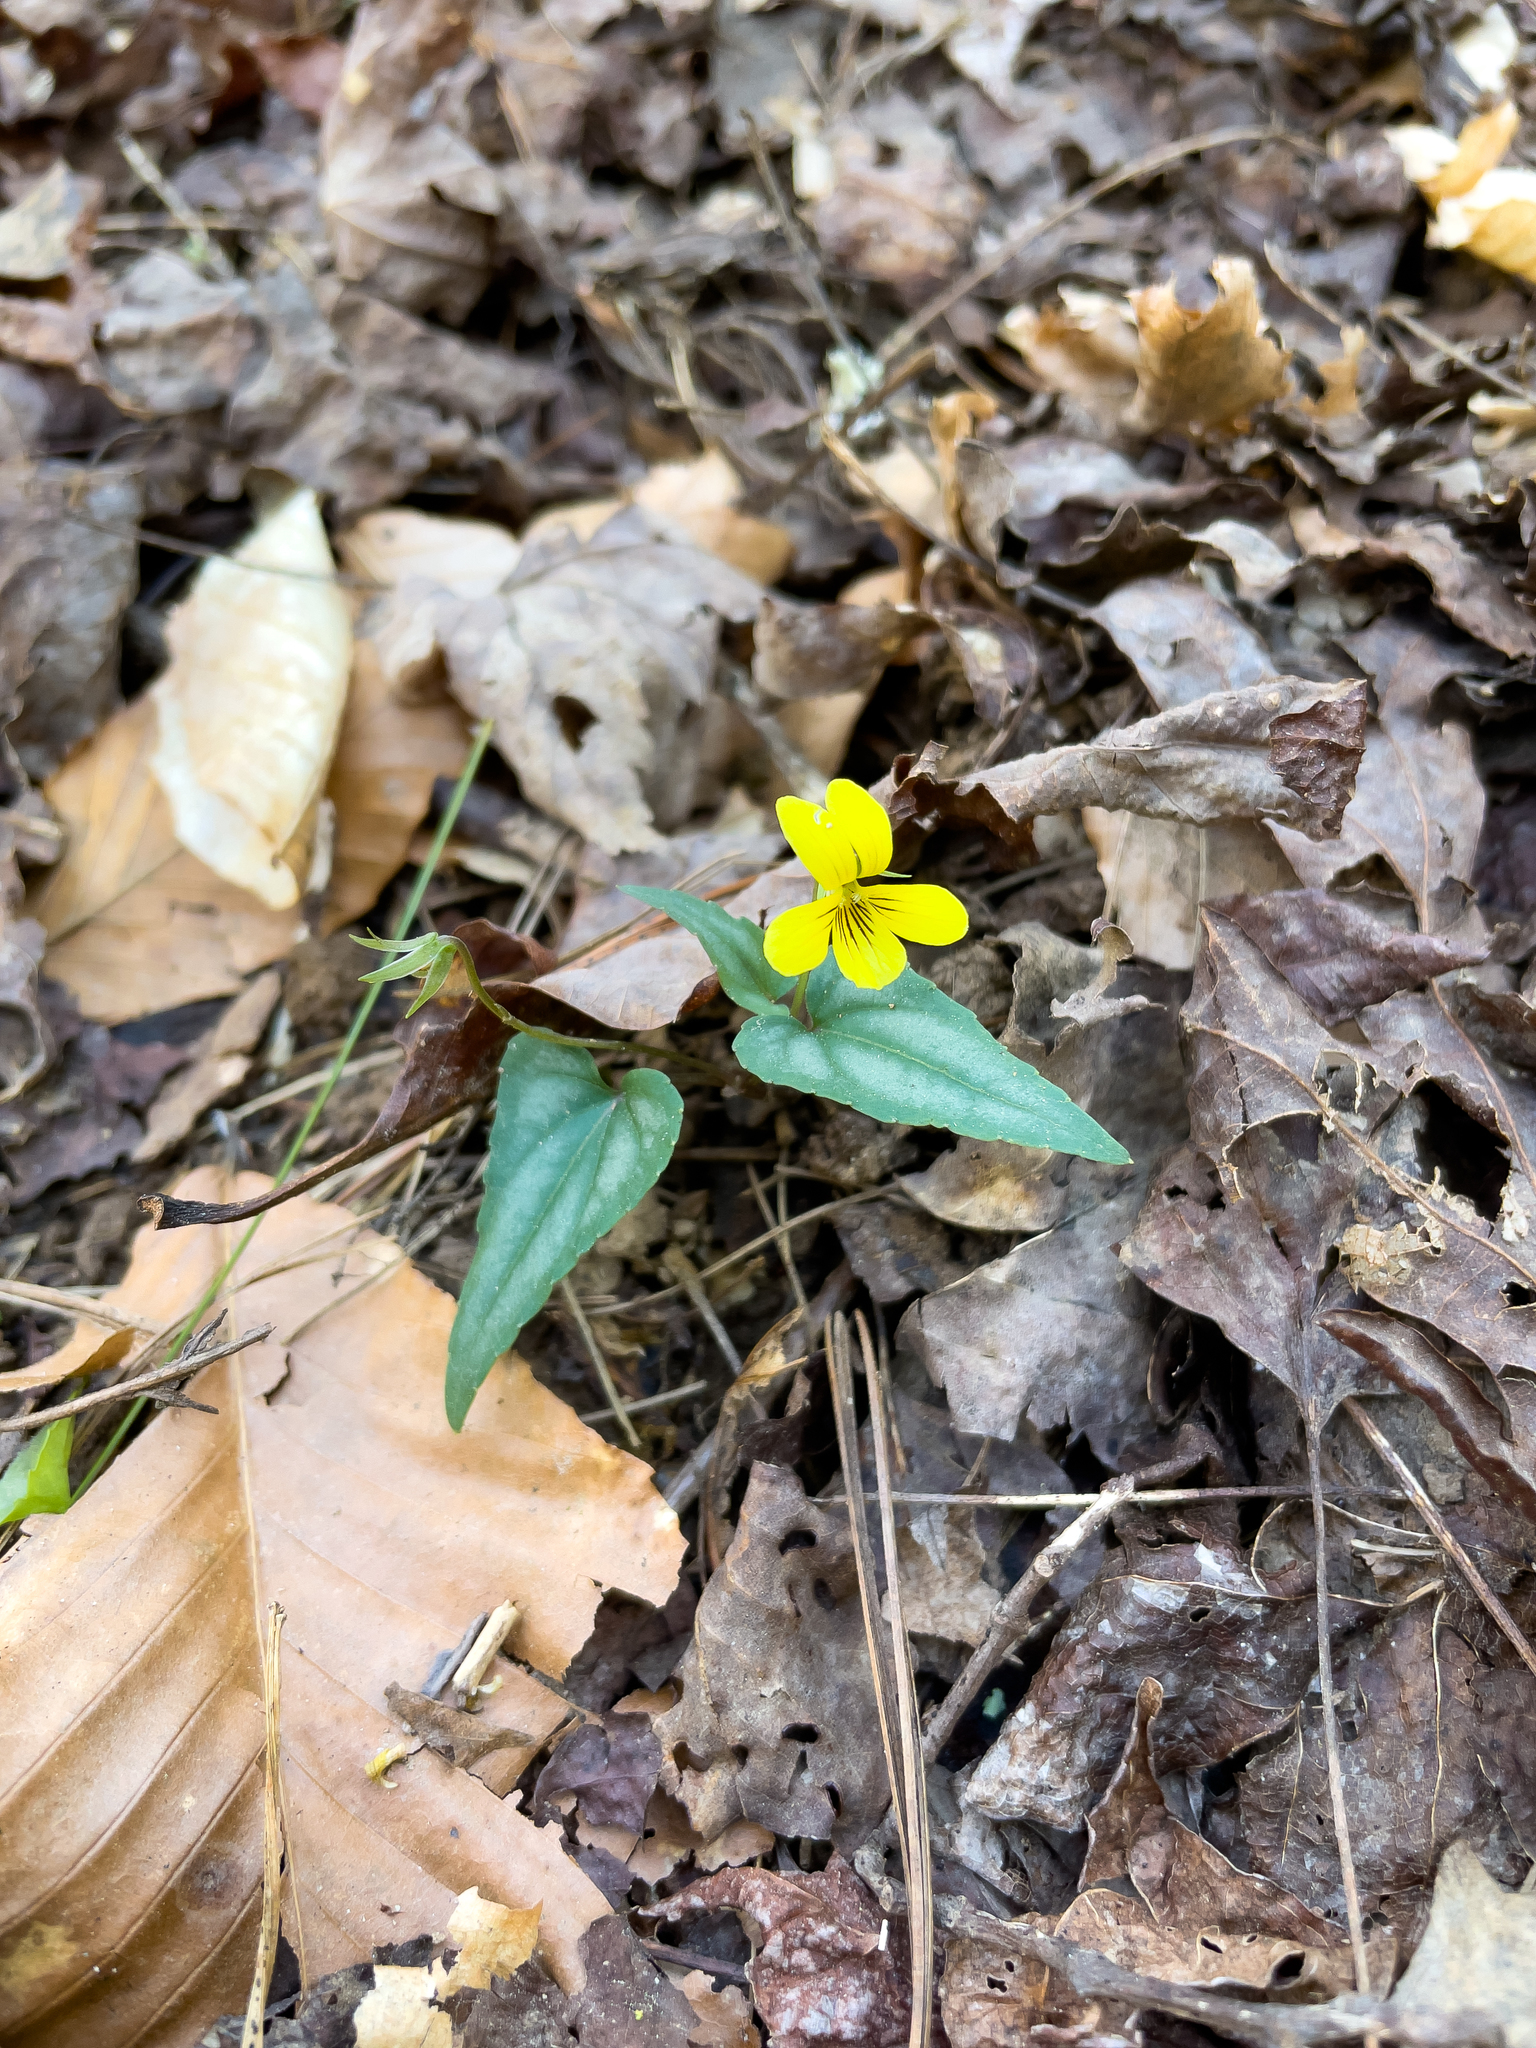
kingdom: Plantae
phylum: Tracheophyta
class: Magnoliopsida
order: Malpighiales
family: Violaceae
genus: Viola
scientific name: Viola hastata
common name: Spear-leaf violet
